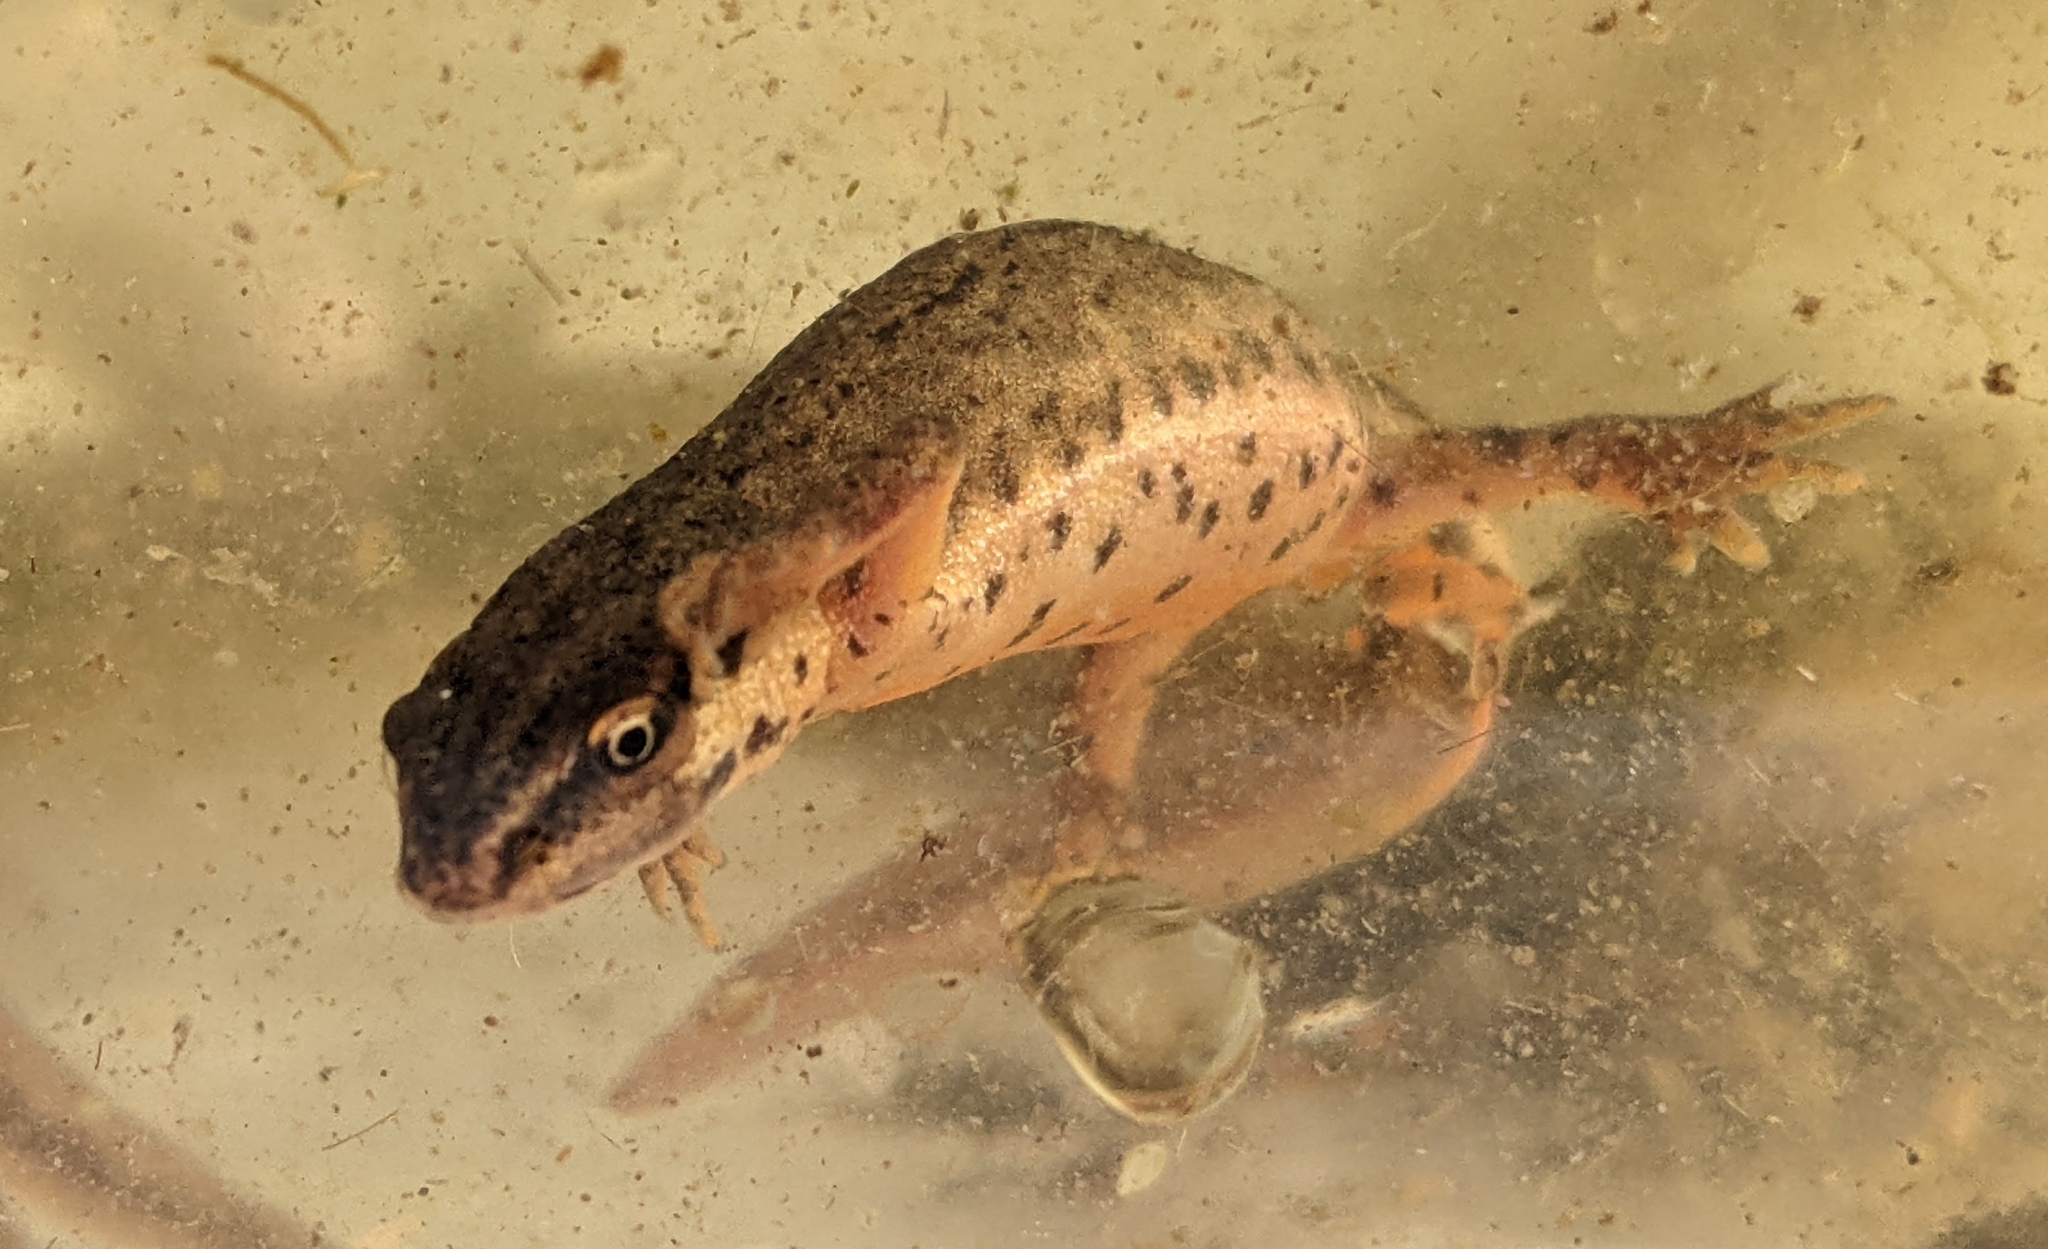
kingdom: Animalia
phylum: Chordata
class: Amphibia
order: Caudata
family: Salamandridae
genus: Lissotriton
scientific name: Lissotriton vulgaris
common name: Smooth newt
